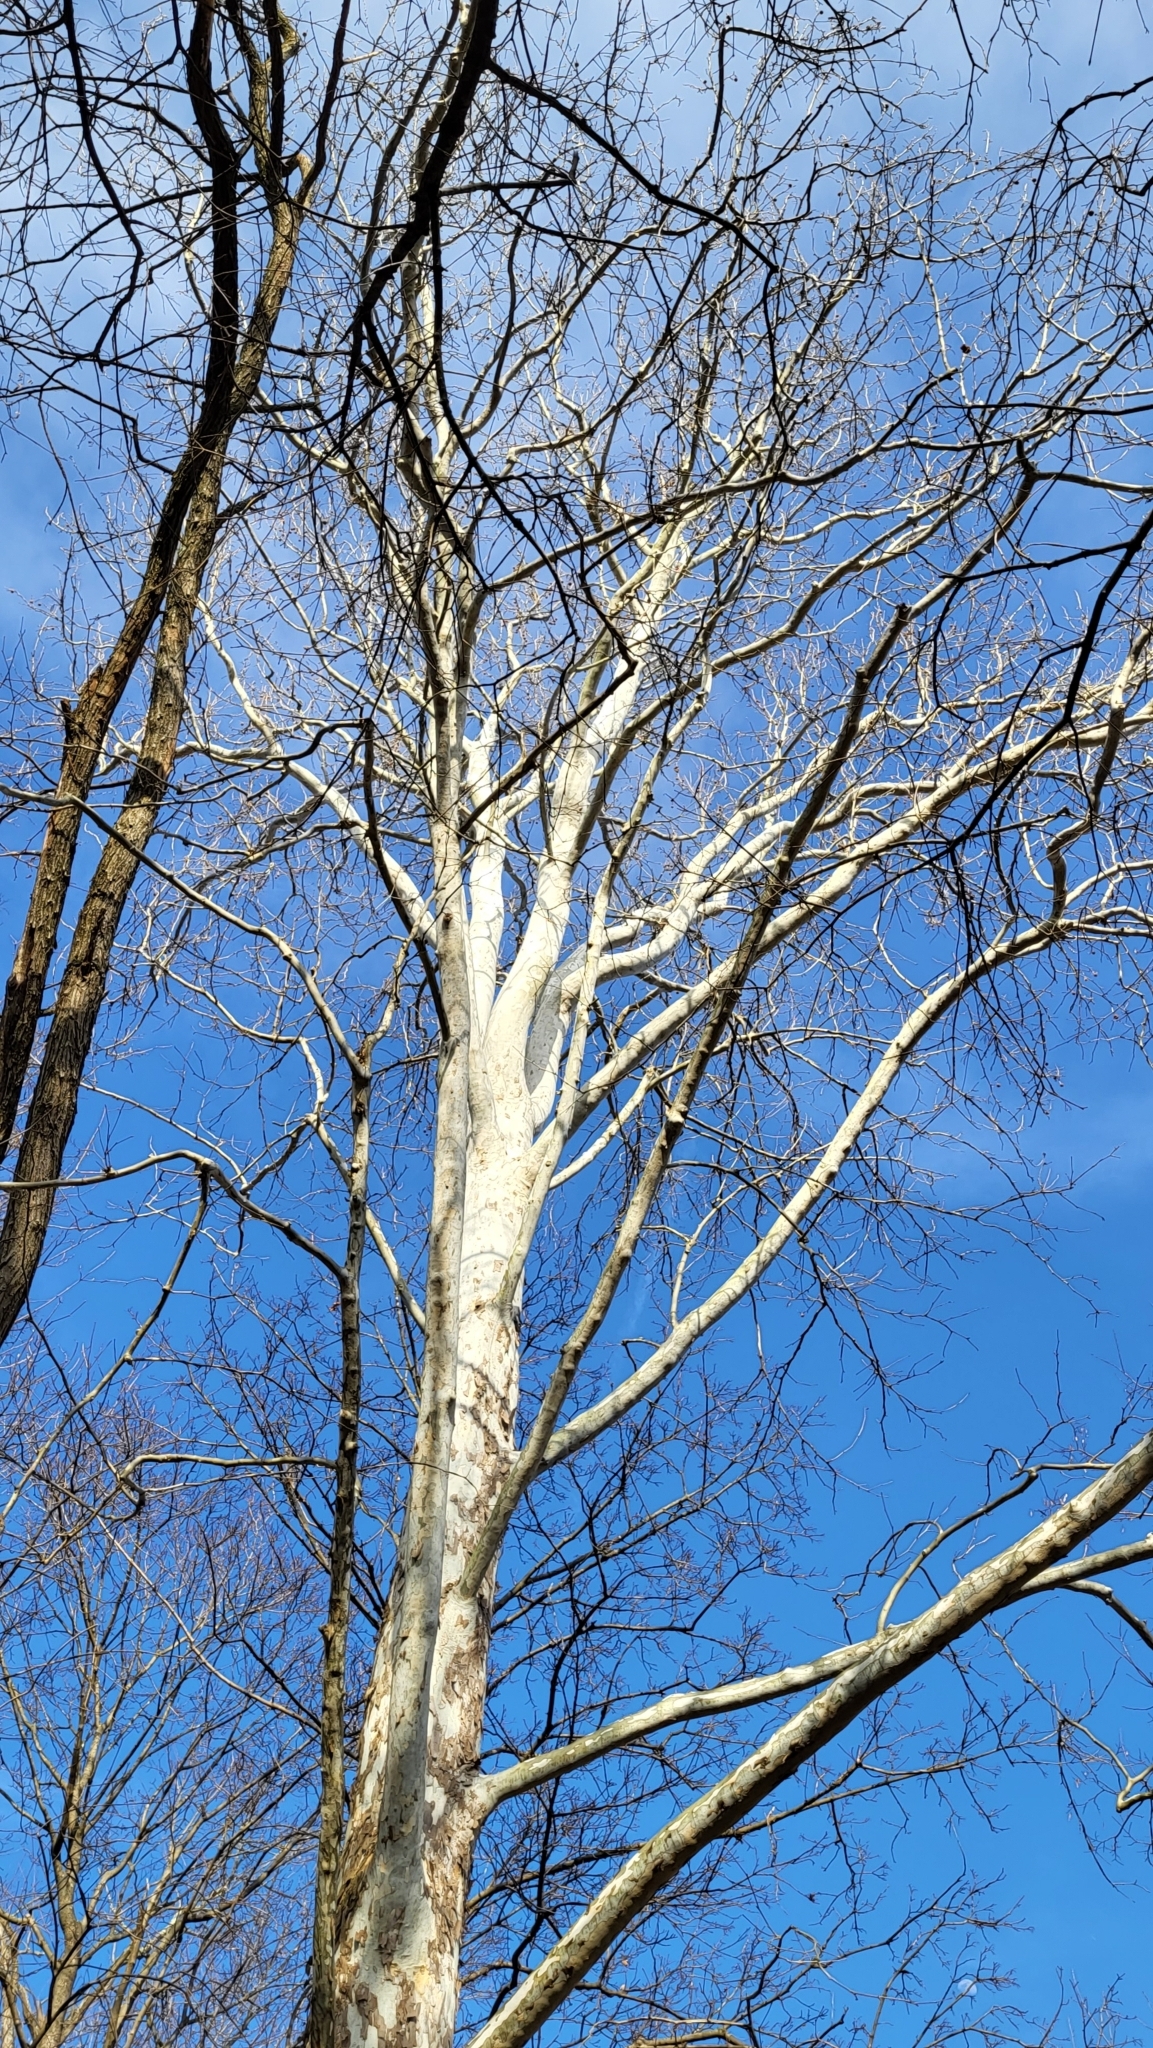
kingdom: Plantae
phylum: Tracheophyta
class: Magnoliopsida
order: Proteales
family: Platanaceae
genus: Platanus
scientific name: Platanus occidentalis
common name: American sycamore
